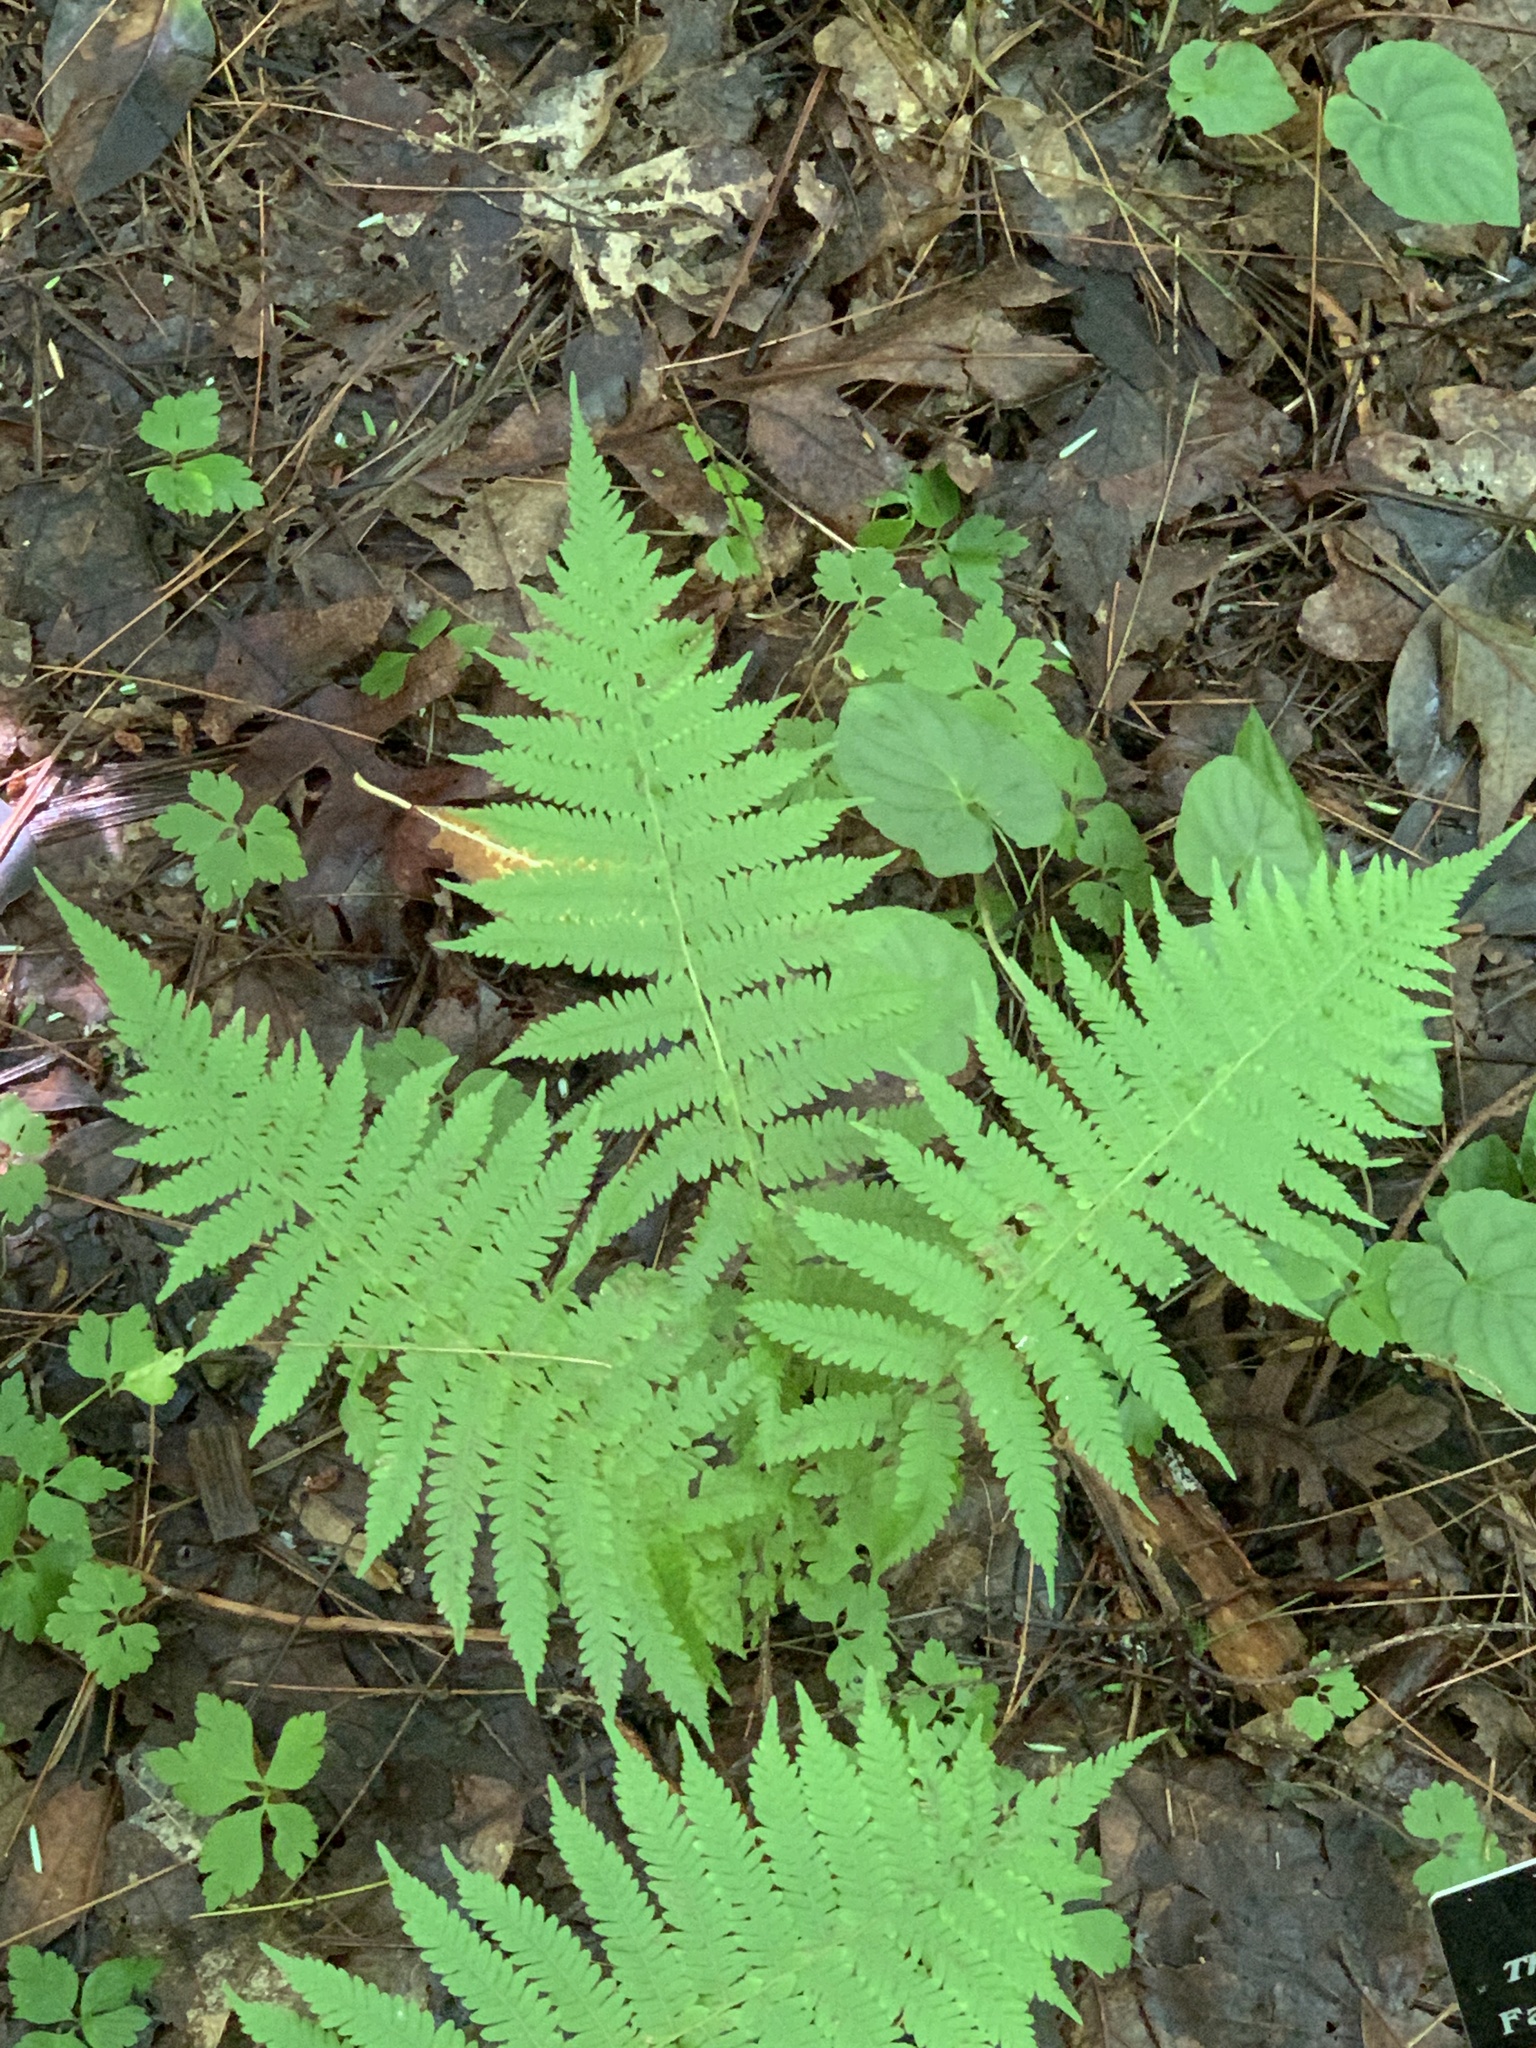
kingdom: Plantae
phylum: Tracheophyta
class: Polypodiopsida
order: Polypodiales
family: Thelypteridaceae
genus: Amauropelta
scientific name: Amauropelta noveboracensis
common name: New york fern
